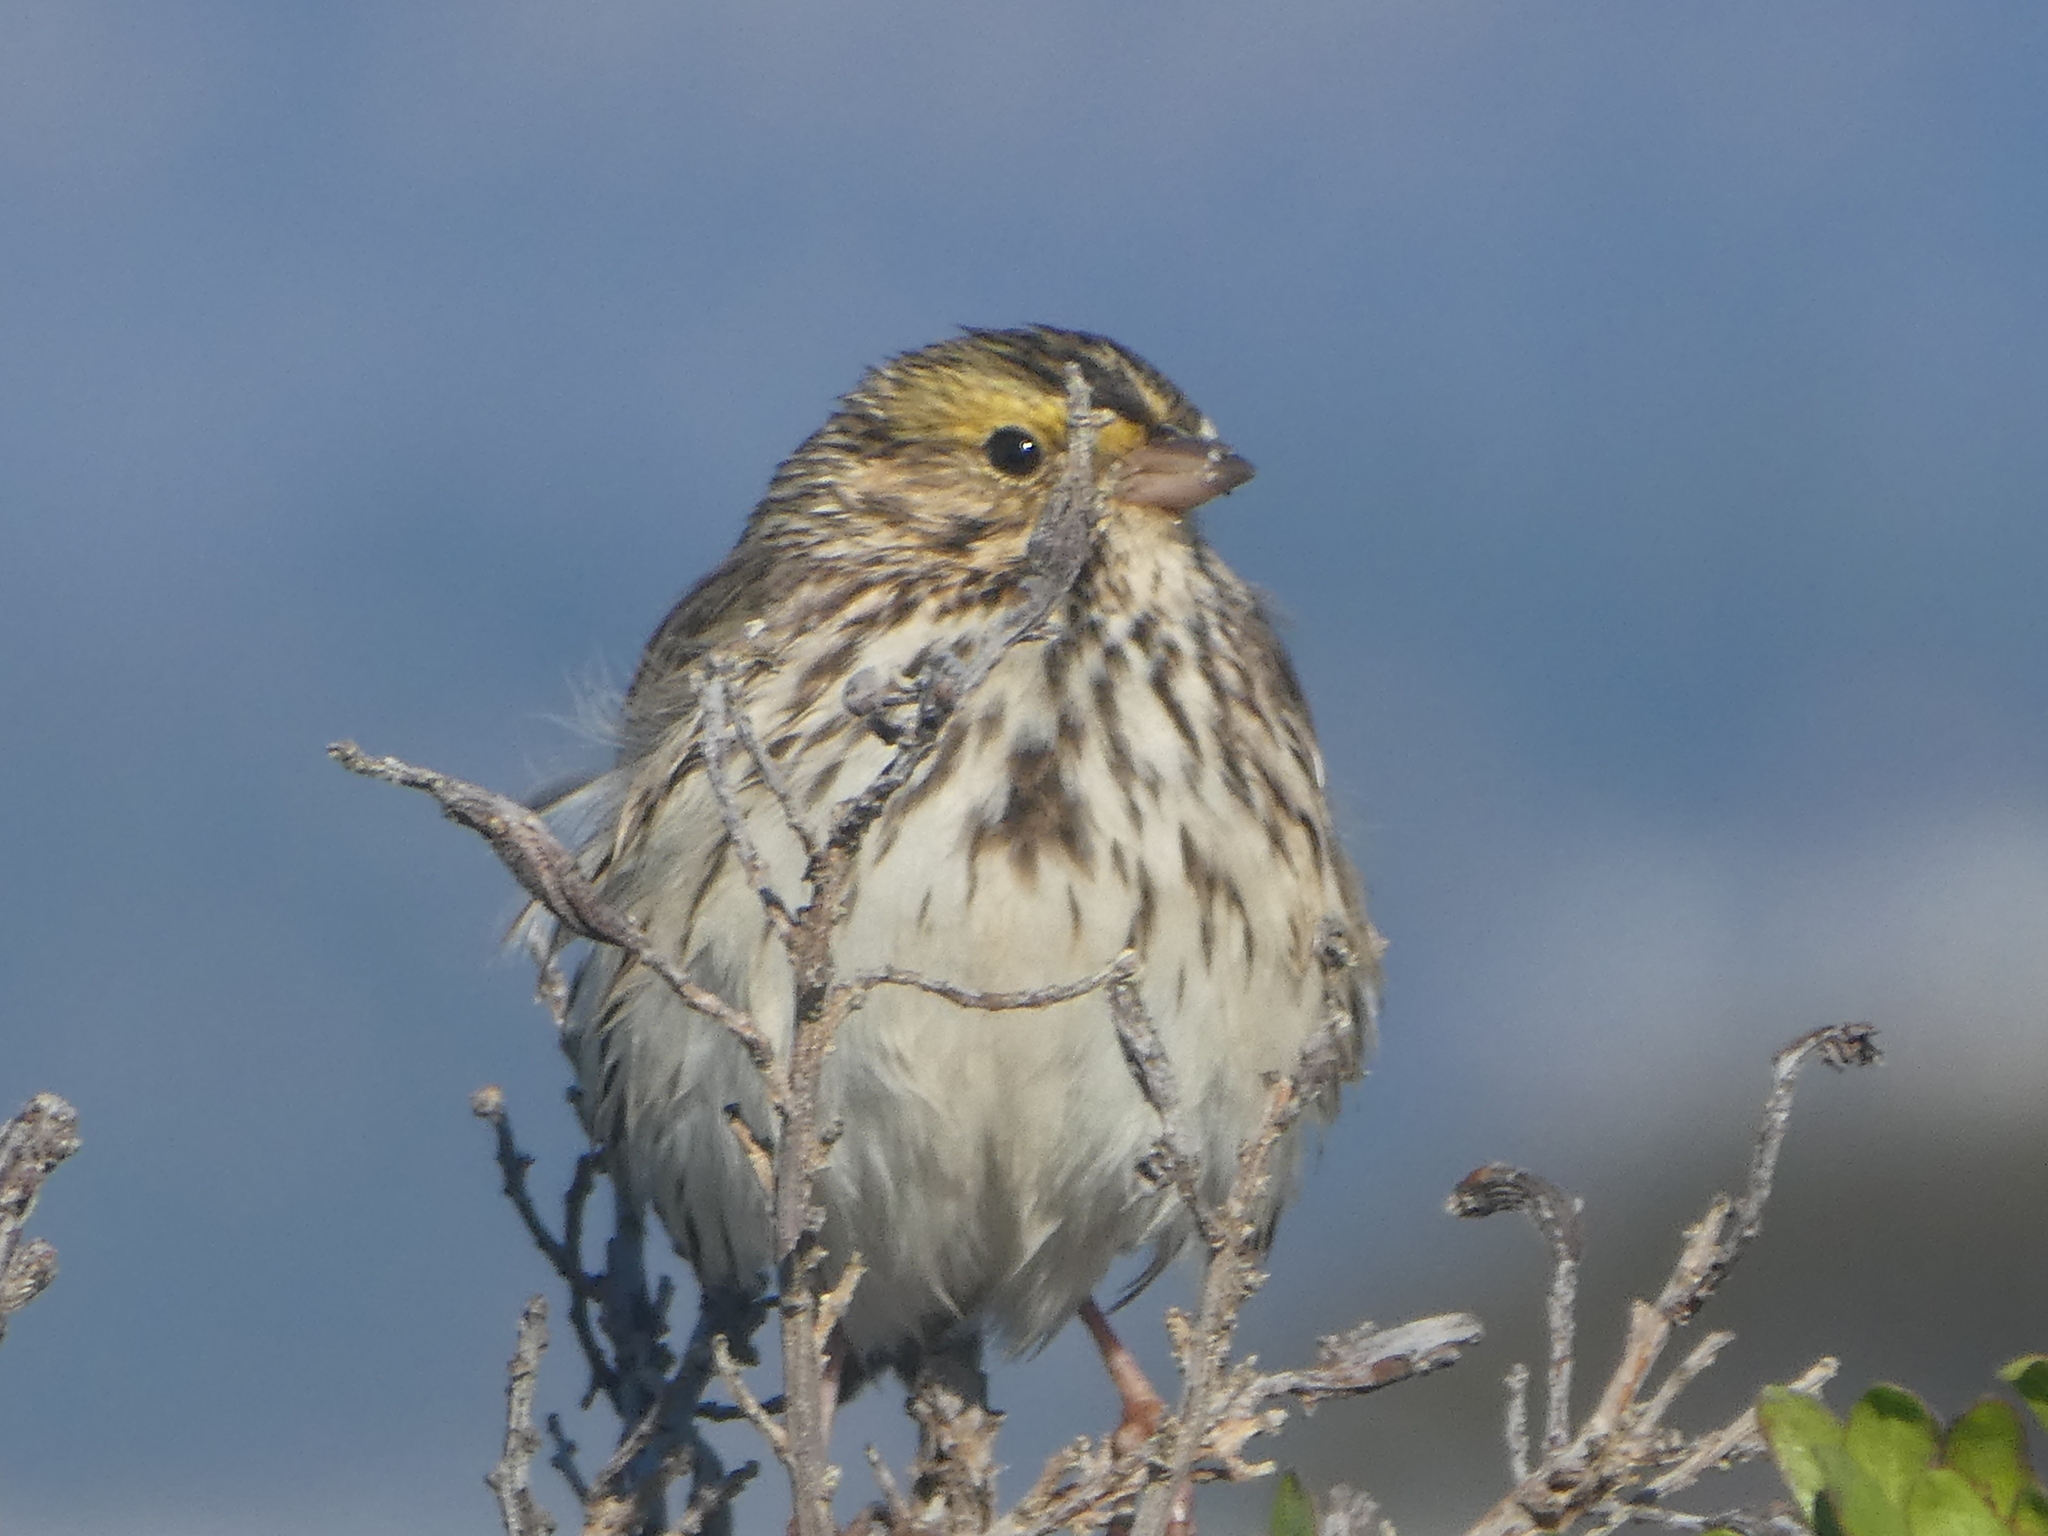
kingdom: Animalia
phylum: Chordata
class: Aves
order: Passeriformes
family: Passerellidae
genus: Passerculus
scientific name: Passerculus sandwichensis
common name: Savannah sparrow
